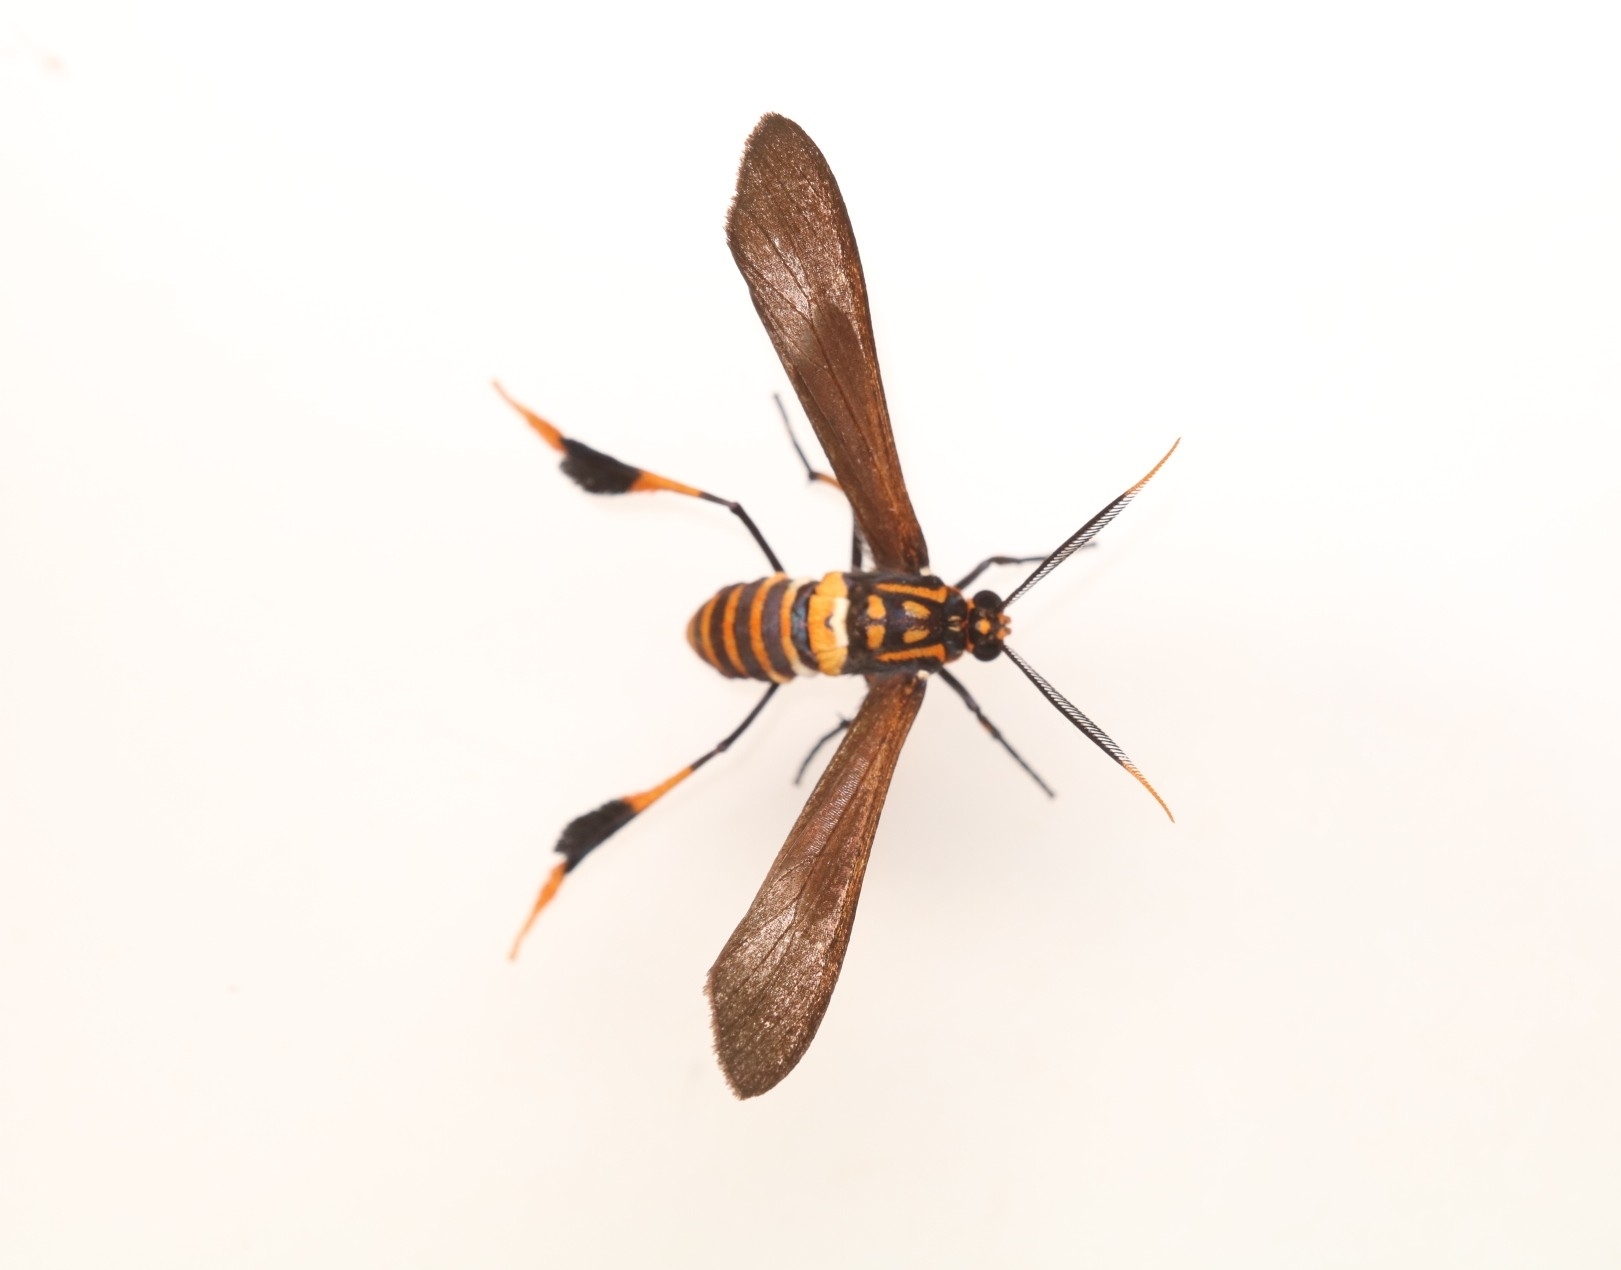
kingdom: Animalia
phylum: Arthropoda
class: Insecta
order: Lepidoptera
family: Erebidae
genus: Horama
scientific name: Horama panthalon
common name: Texas wasp moth
